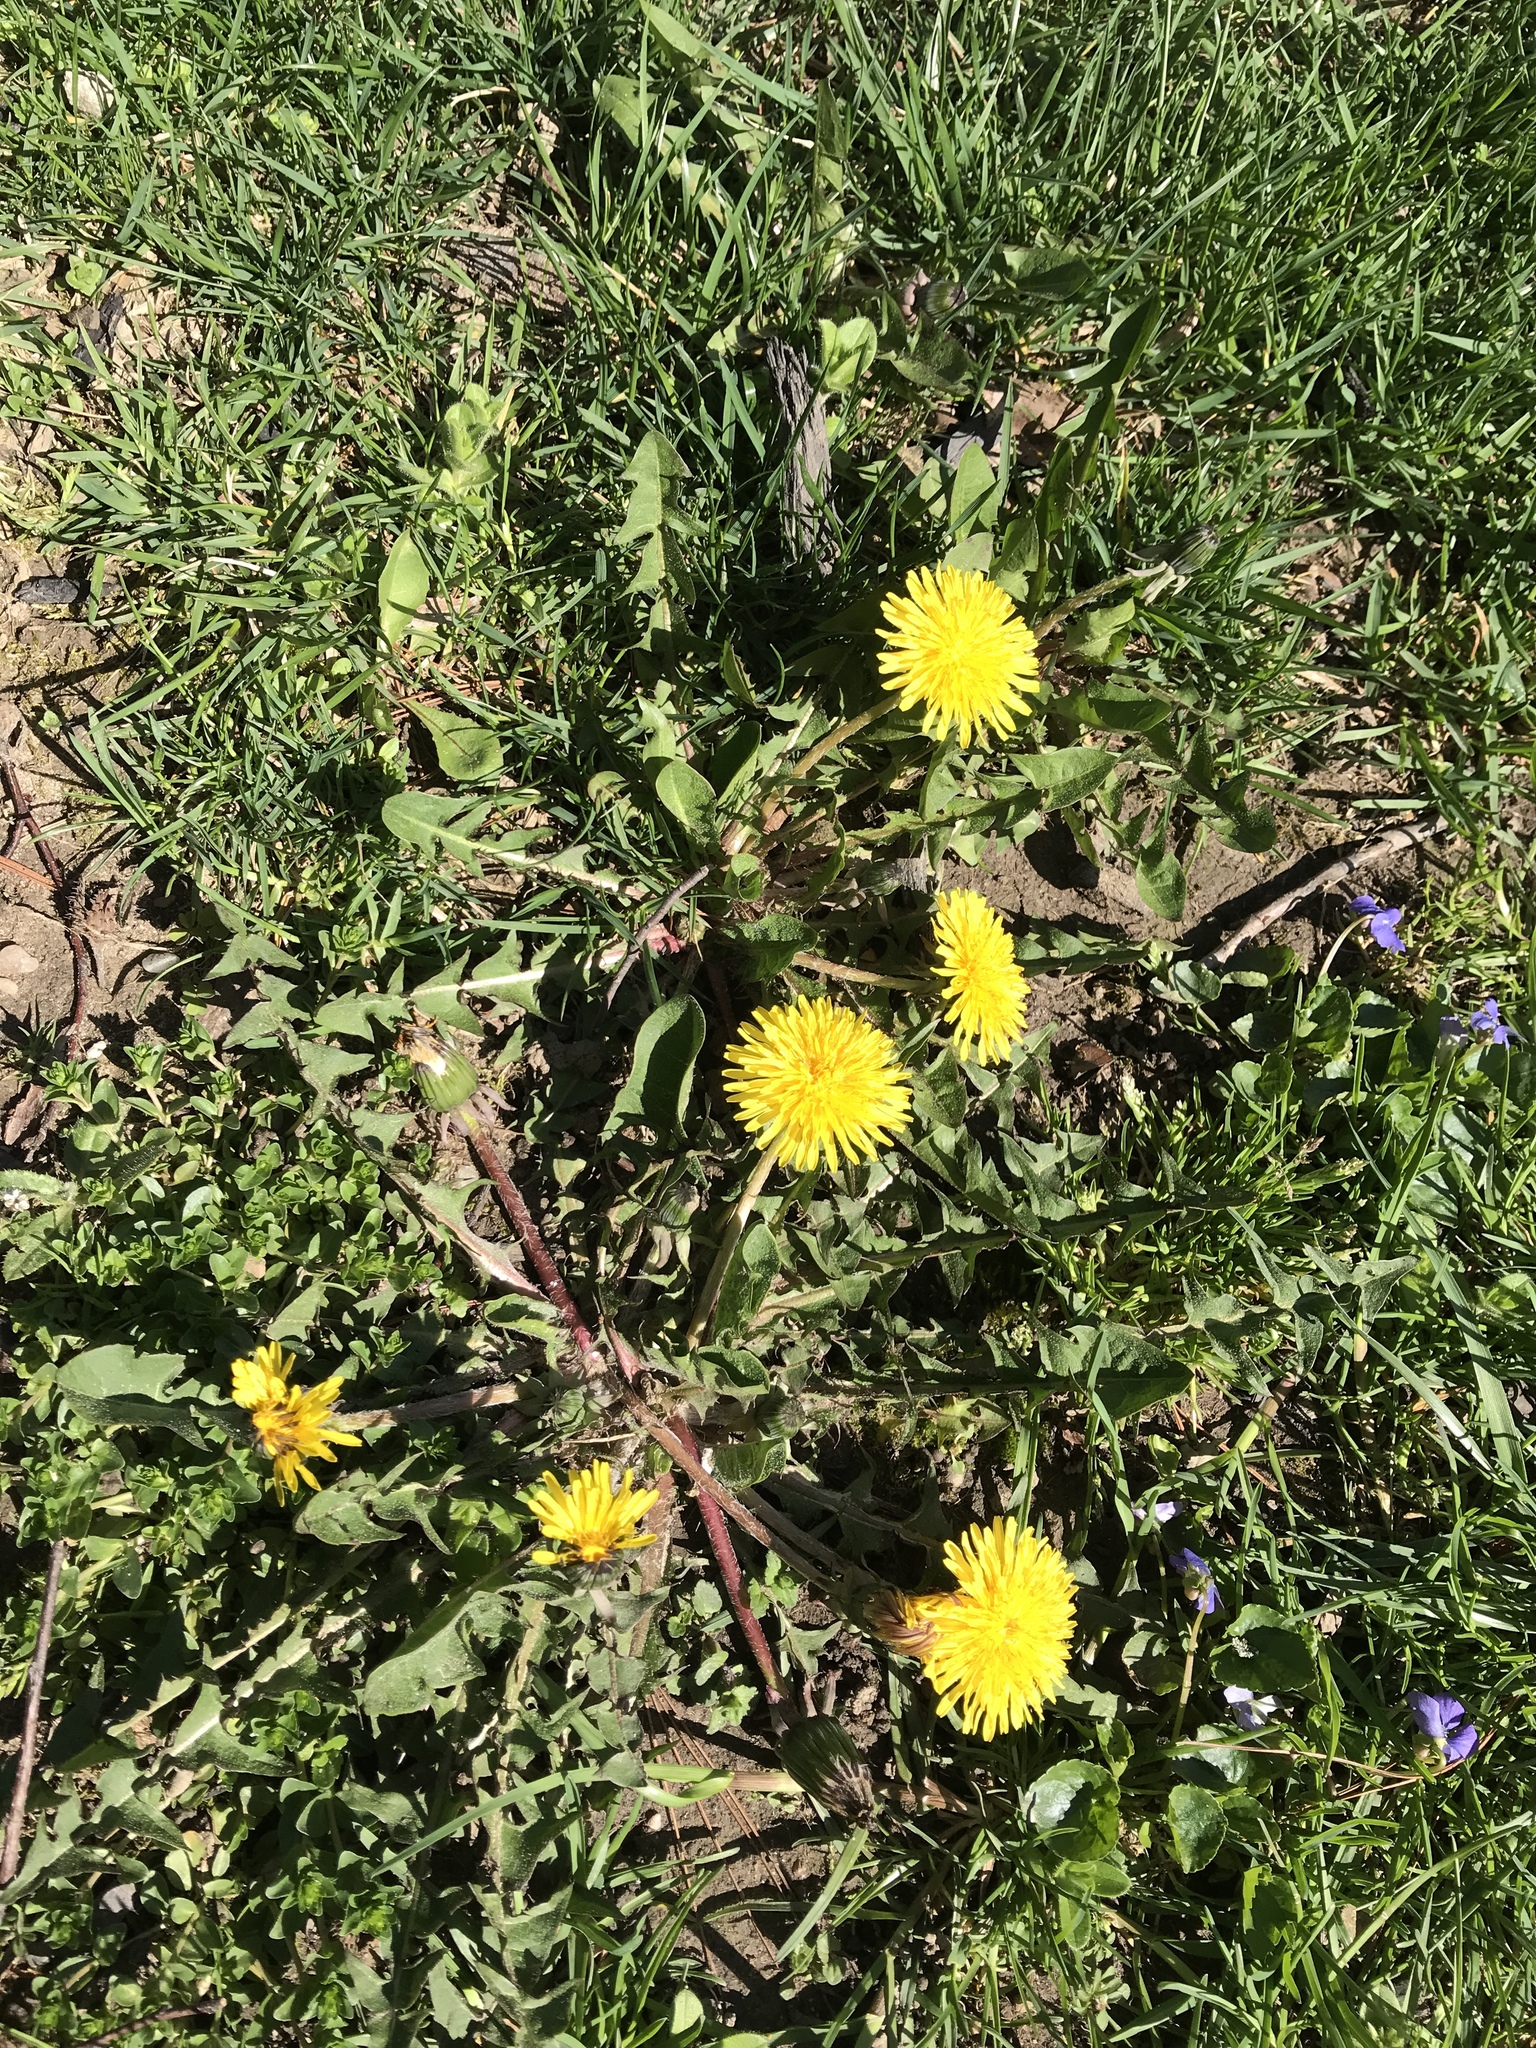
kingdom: Plantae
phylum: Tracheophyta
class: Magnoliopsida
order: Asterales
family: Asteraceae
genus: Taraxacum
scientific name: Taraxacum officinale
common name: Common dandelion
